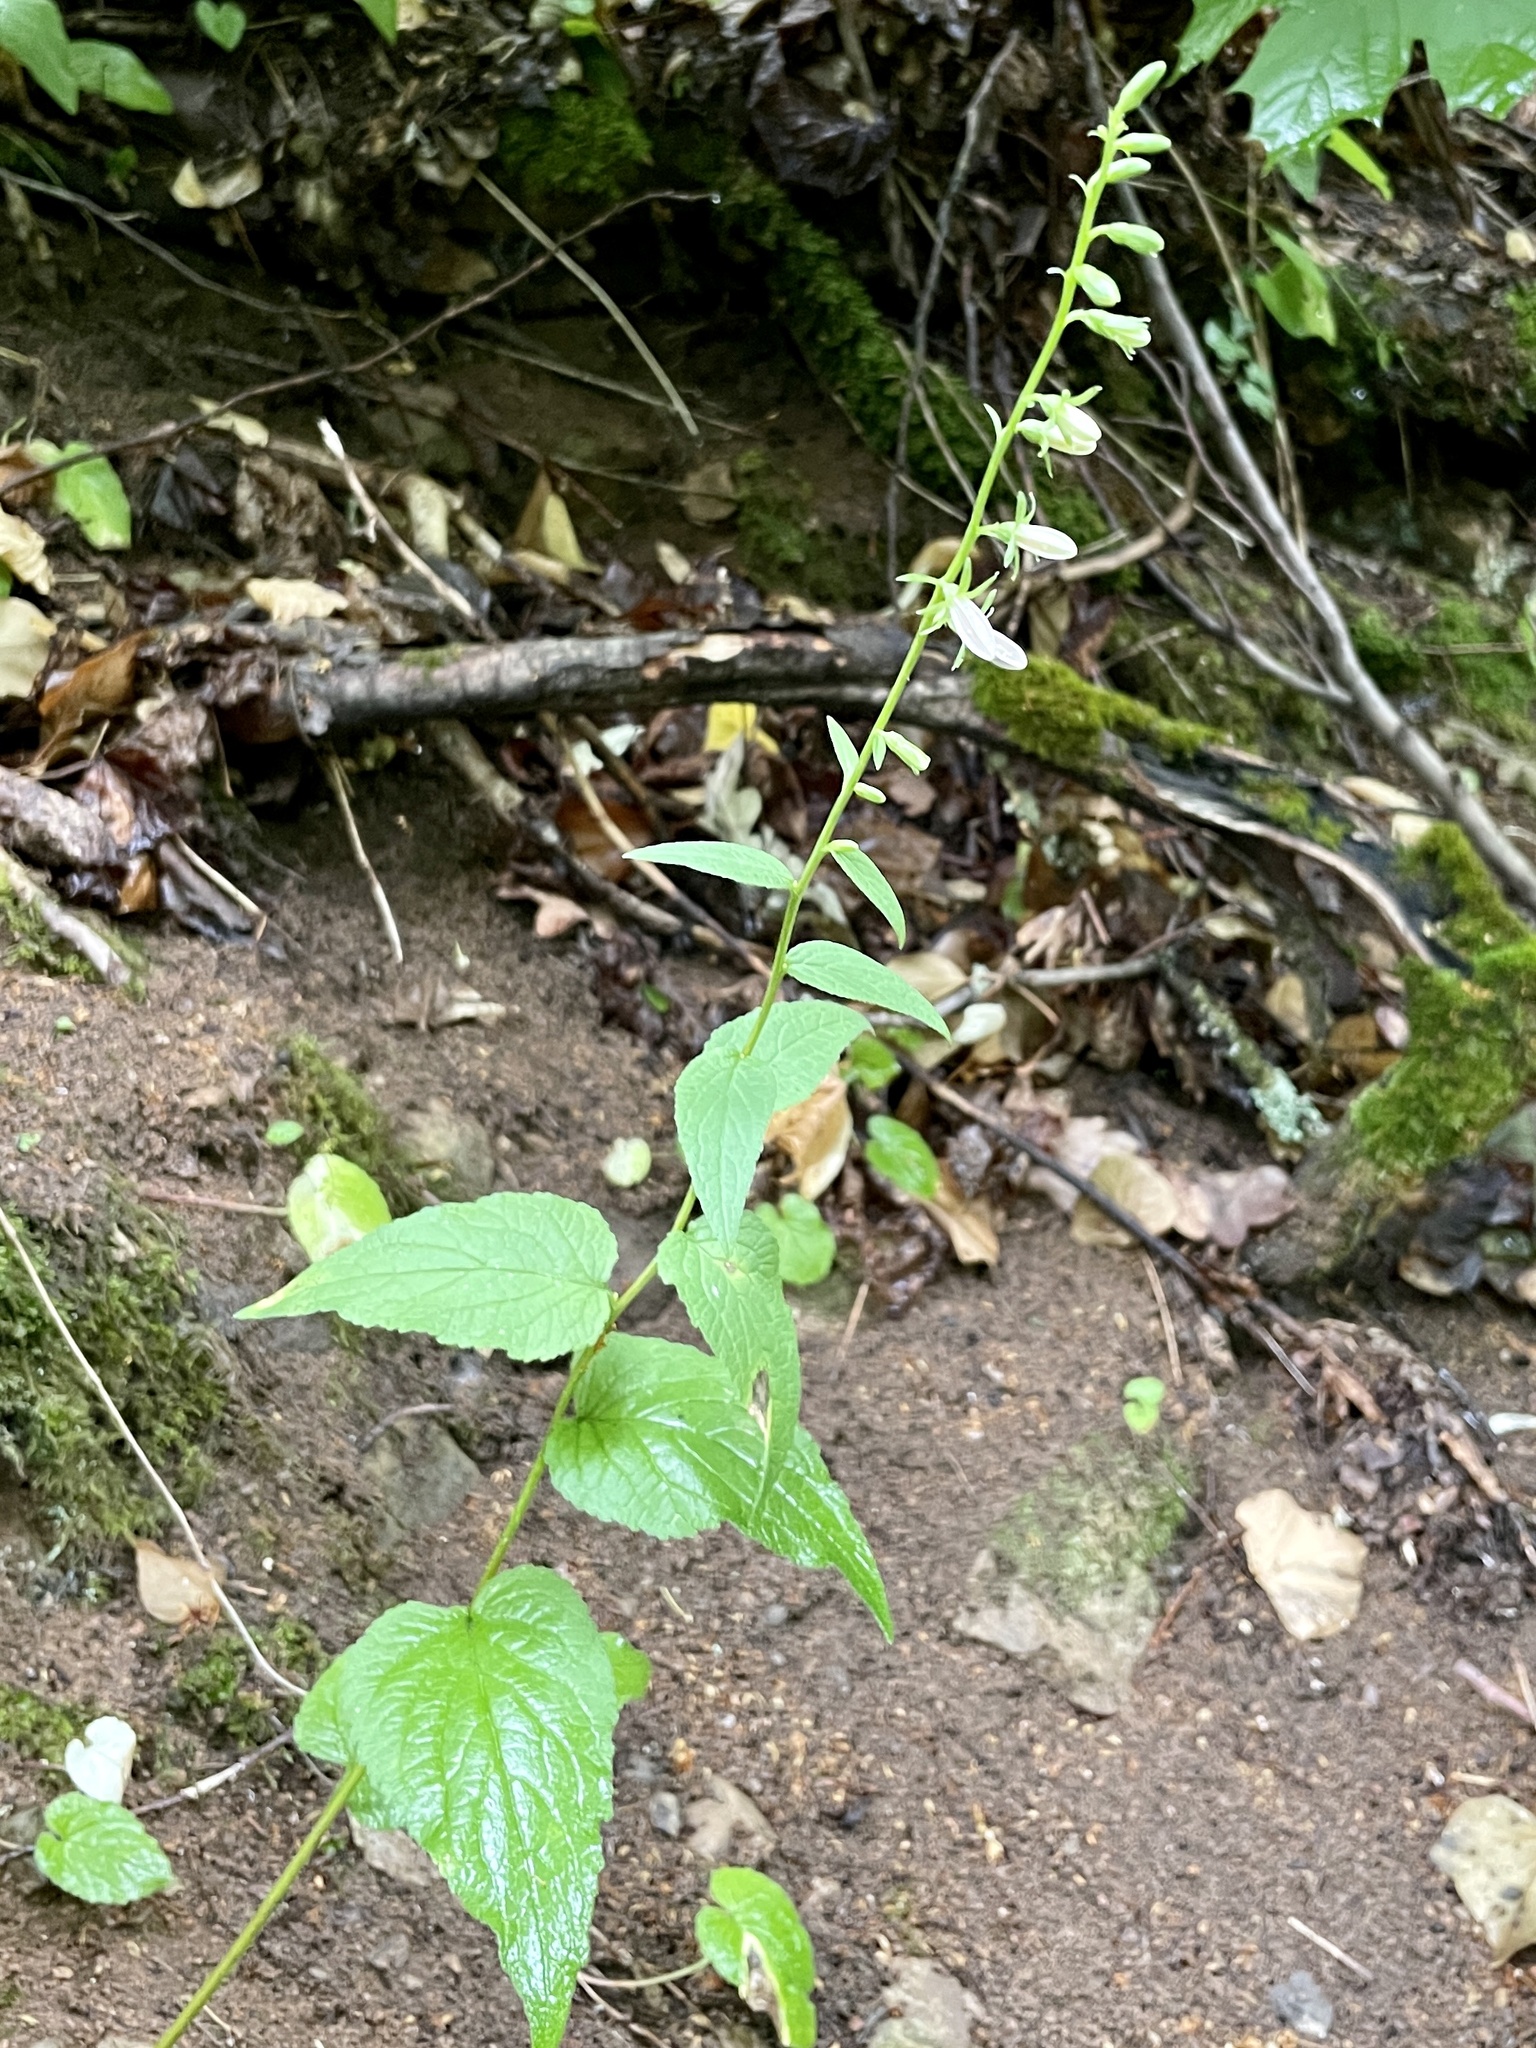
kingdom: Plantae
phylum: Tracheophyta
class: Magnoliopsida
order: Asterales
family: Campanulaceae
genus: Campanula
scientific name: Campanula rapunculoides
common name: Creeping bellflower
